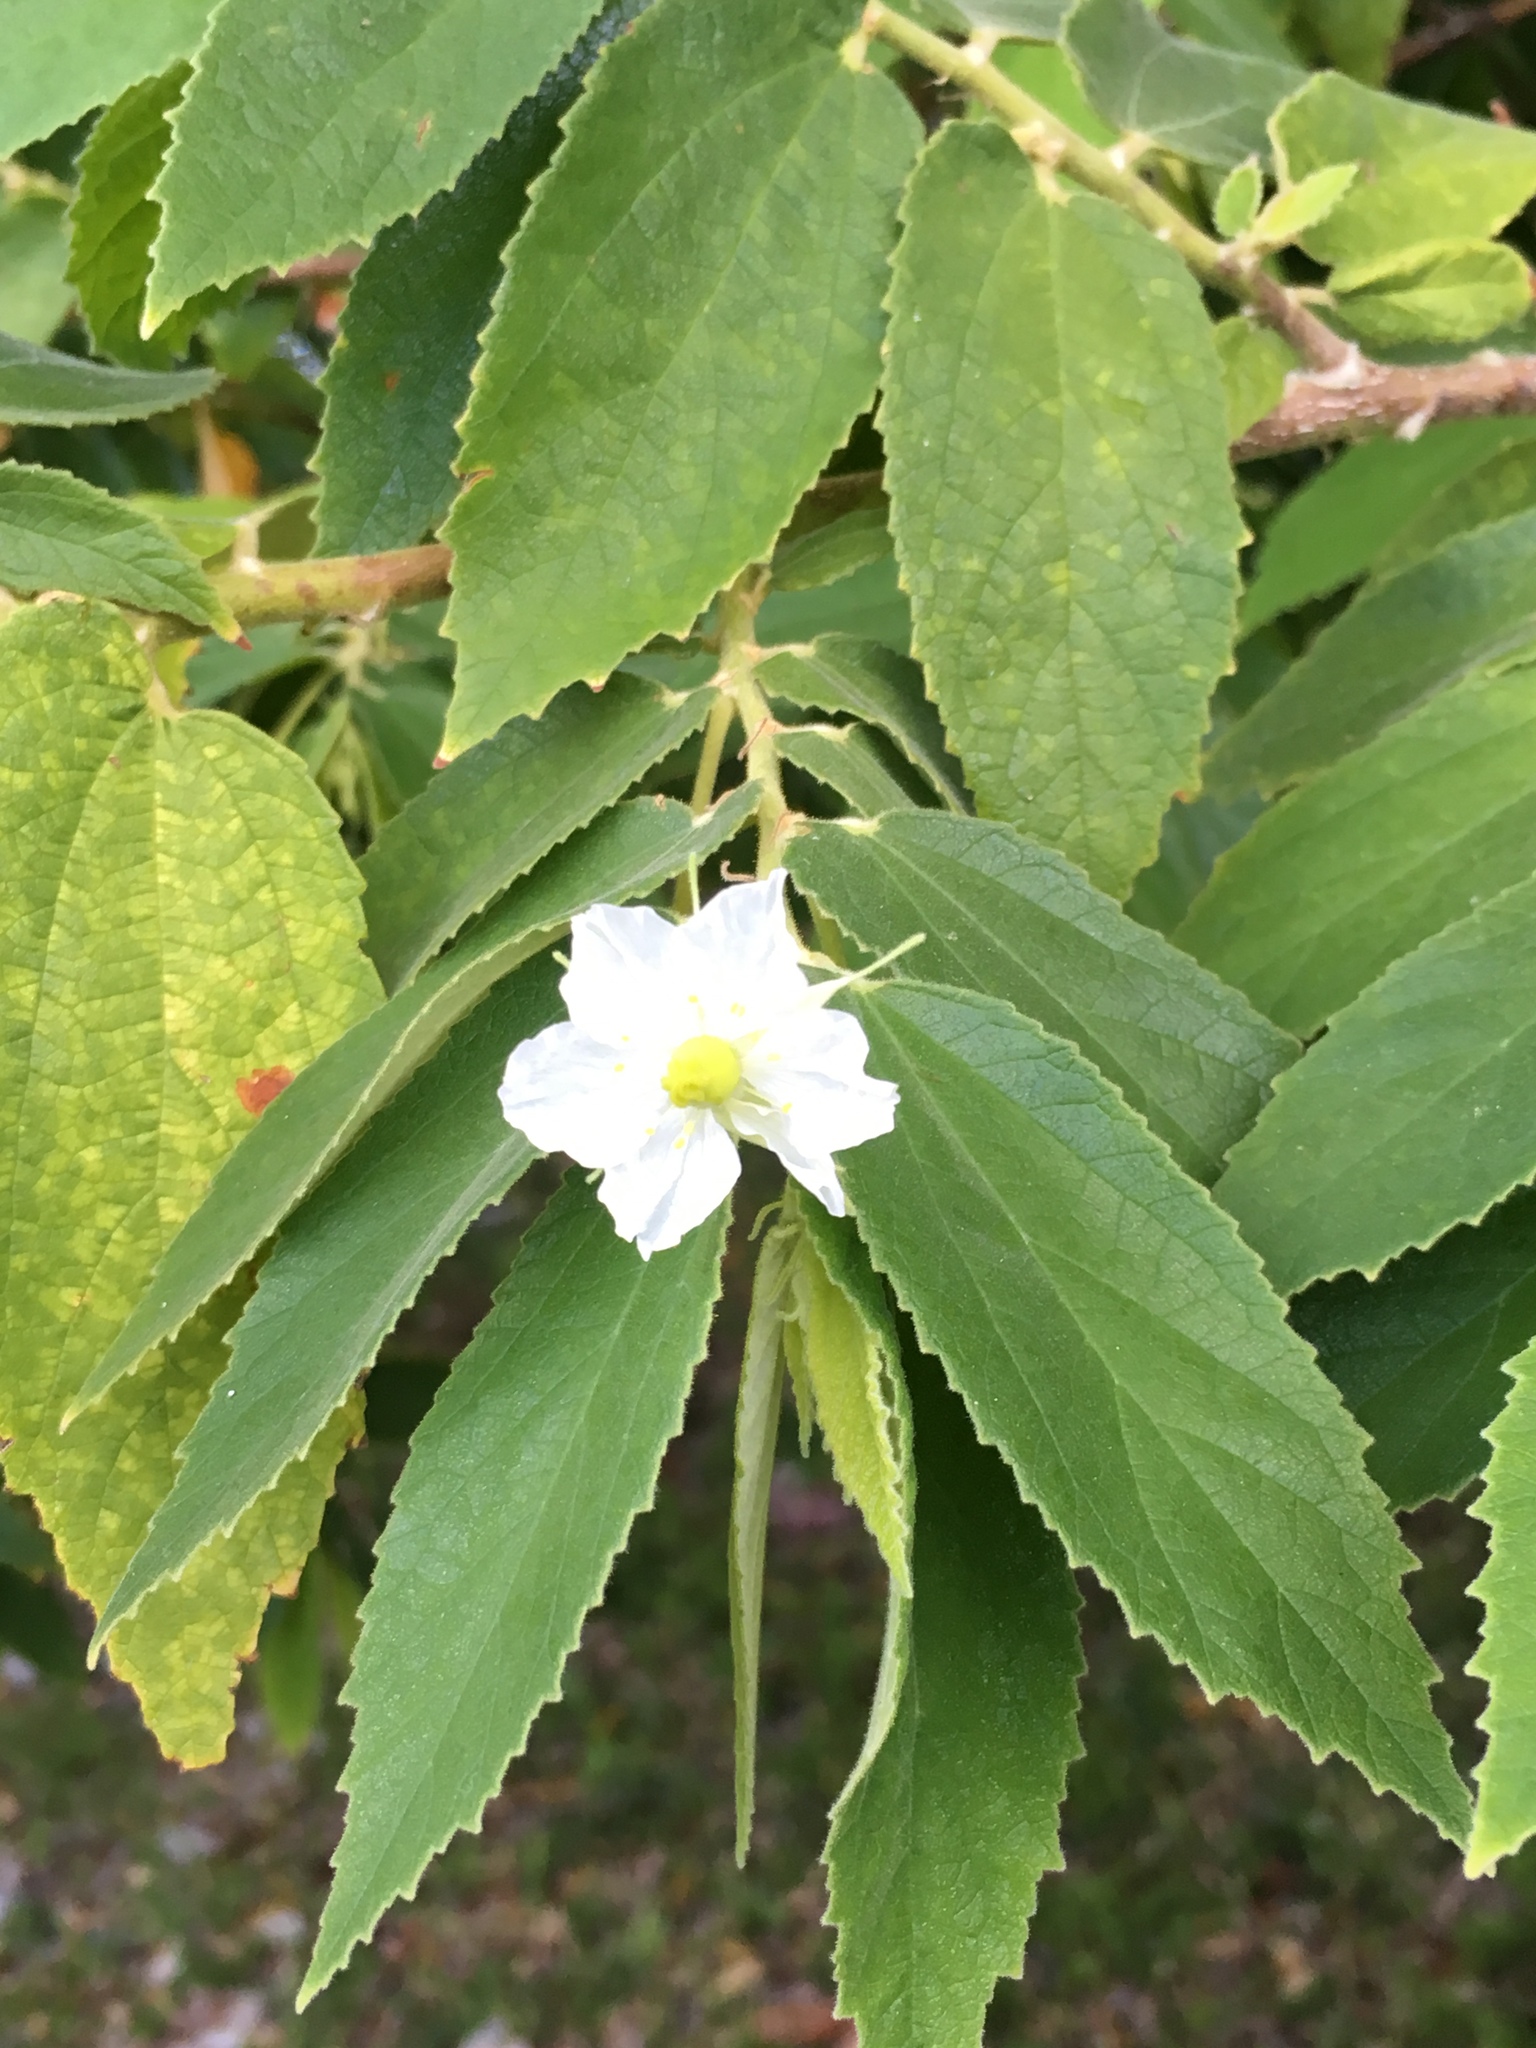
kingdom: Plantae
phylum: Tracheophyta
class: Magnoliopsida
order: Malvales
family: Muntingiaceae
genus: Muntingia
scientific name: Muntingia calabura
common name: Strawberrytree
